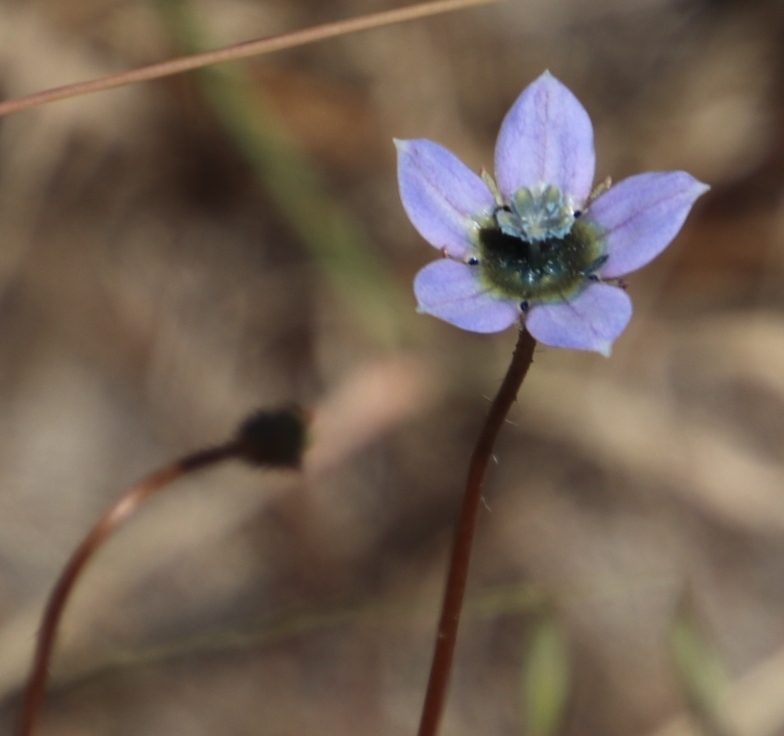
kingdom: Plantae
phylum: Tracheophyta
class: Magnoliopsida
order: Asterales
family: Campanulaceae
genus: Wahlenbergia
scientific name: Wahlenbergia capensis
